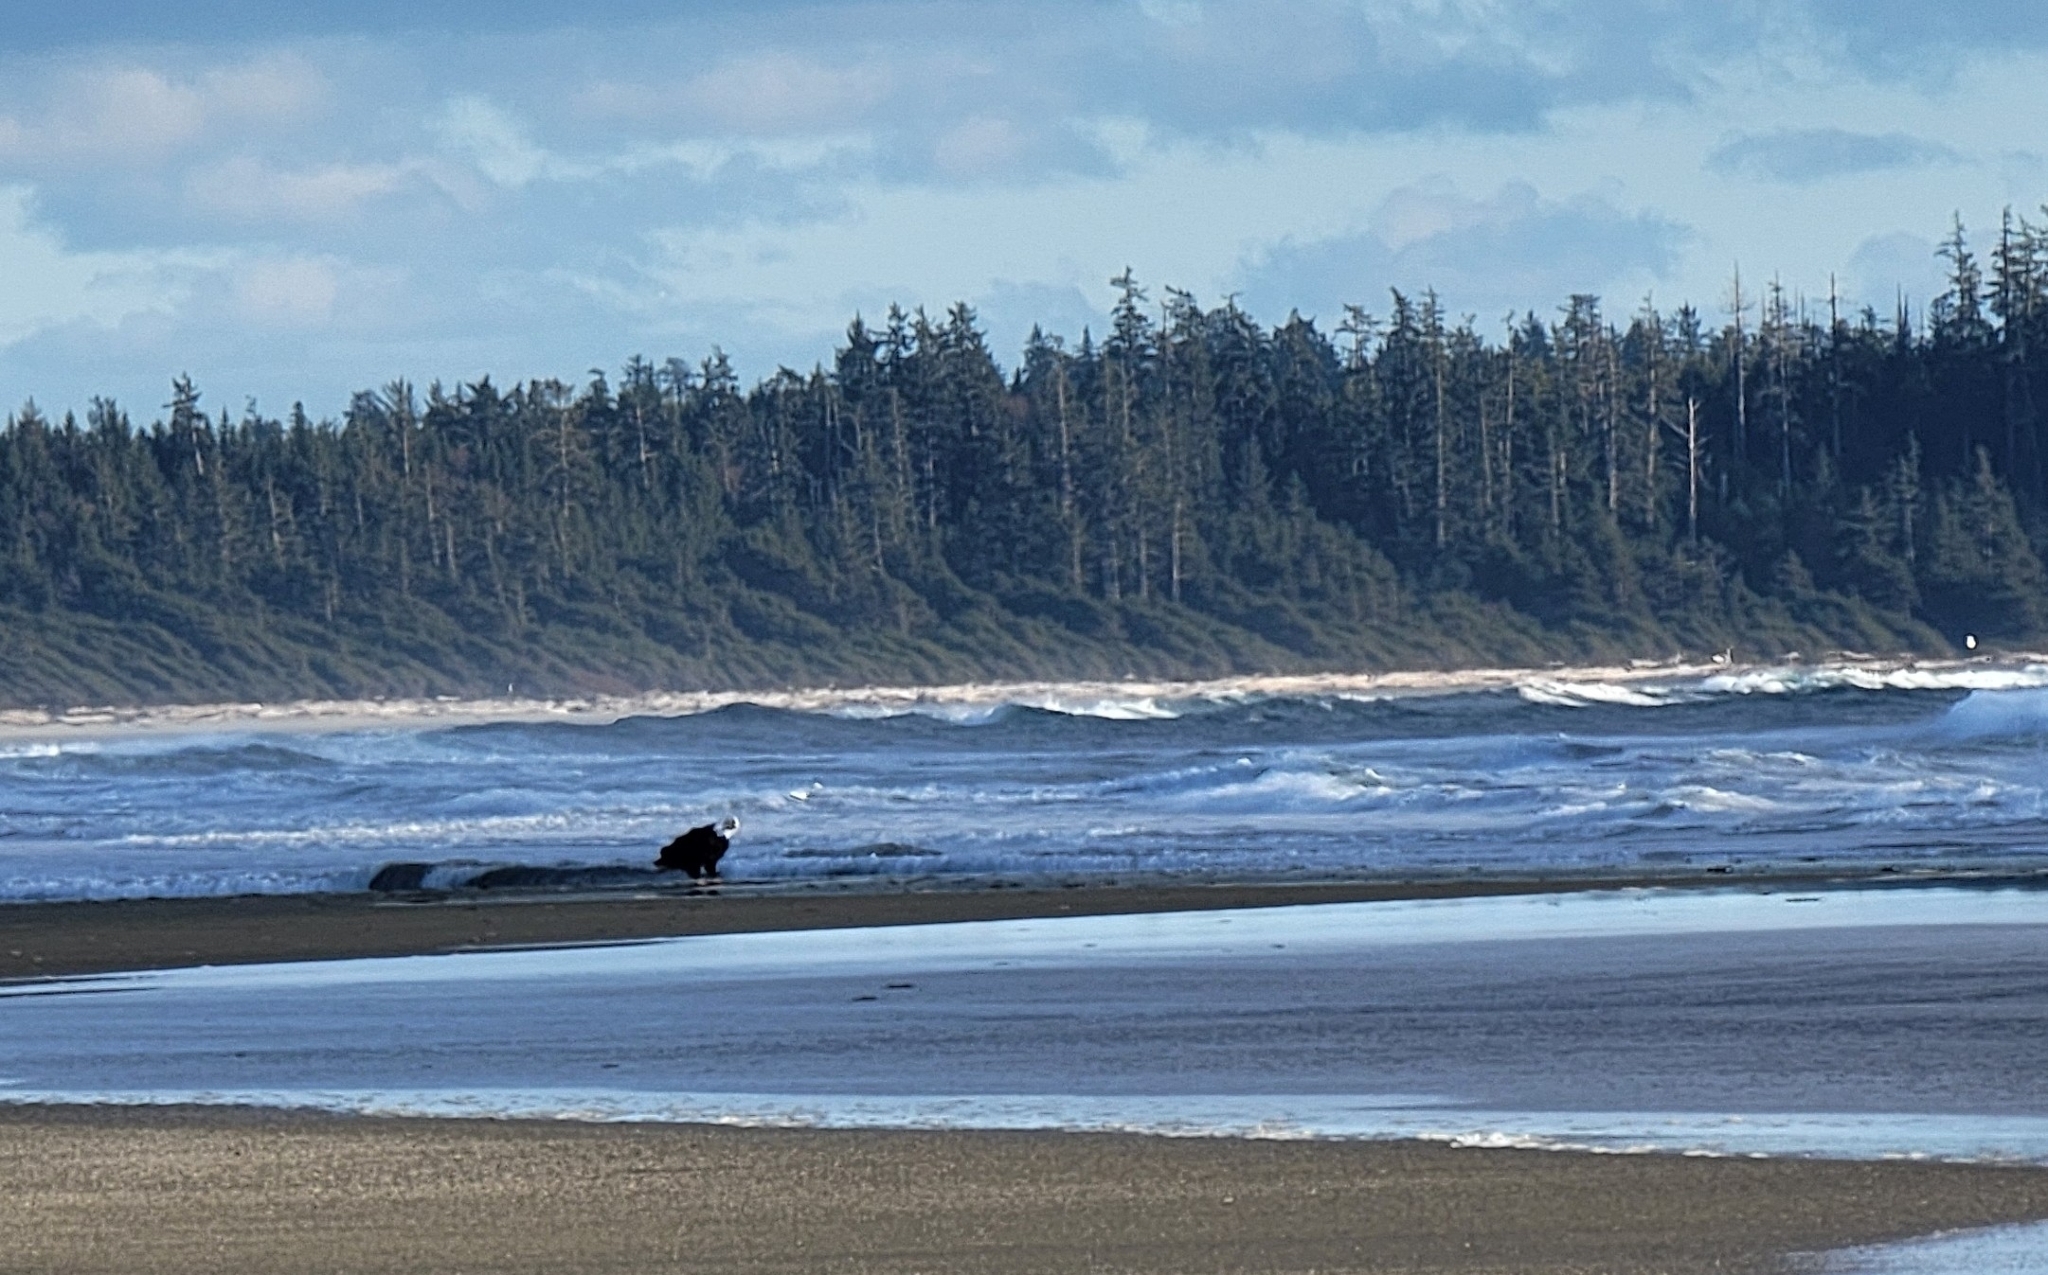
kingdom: Animalia
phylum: Chordata
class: Aves
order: Accipitriformes
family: Accipitridae
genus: Haliaeetus
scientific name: Haliaeetus leucocephalus
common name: Bald eagle
